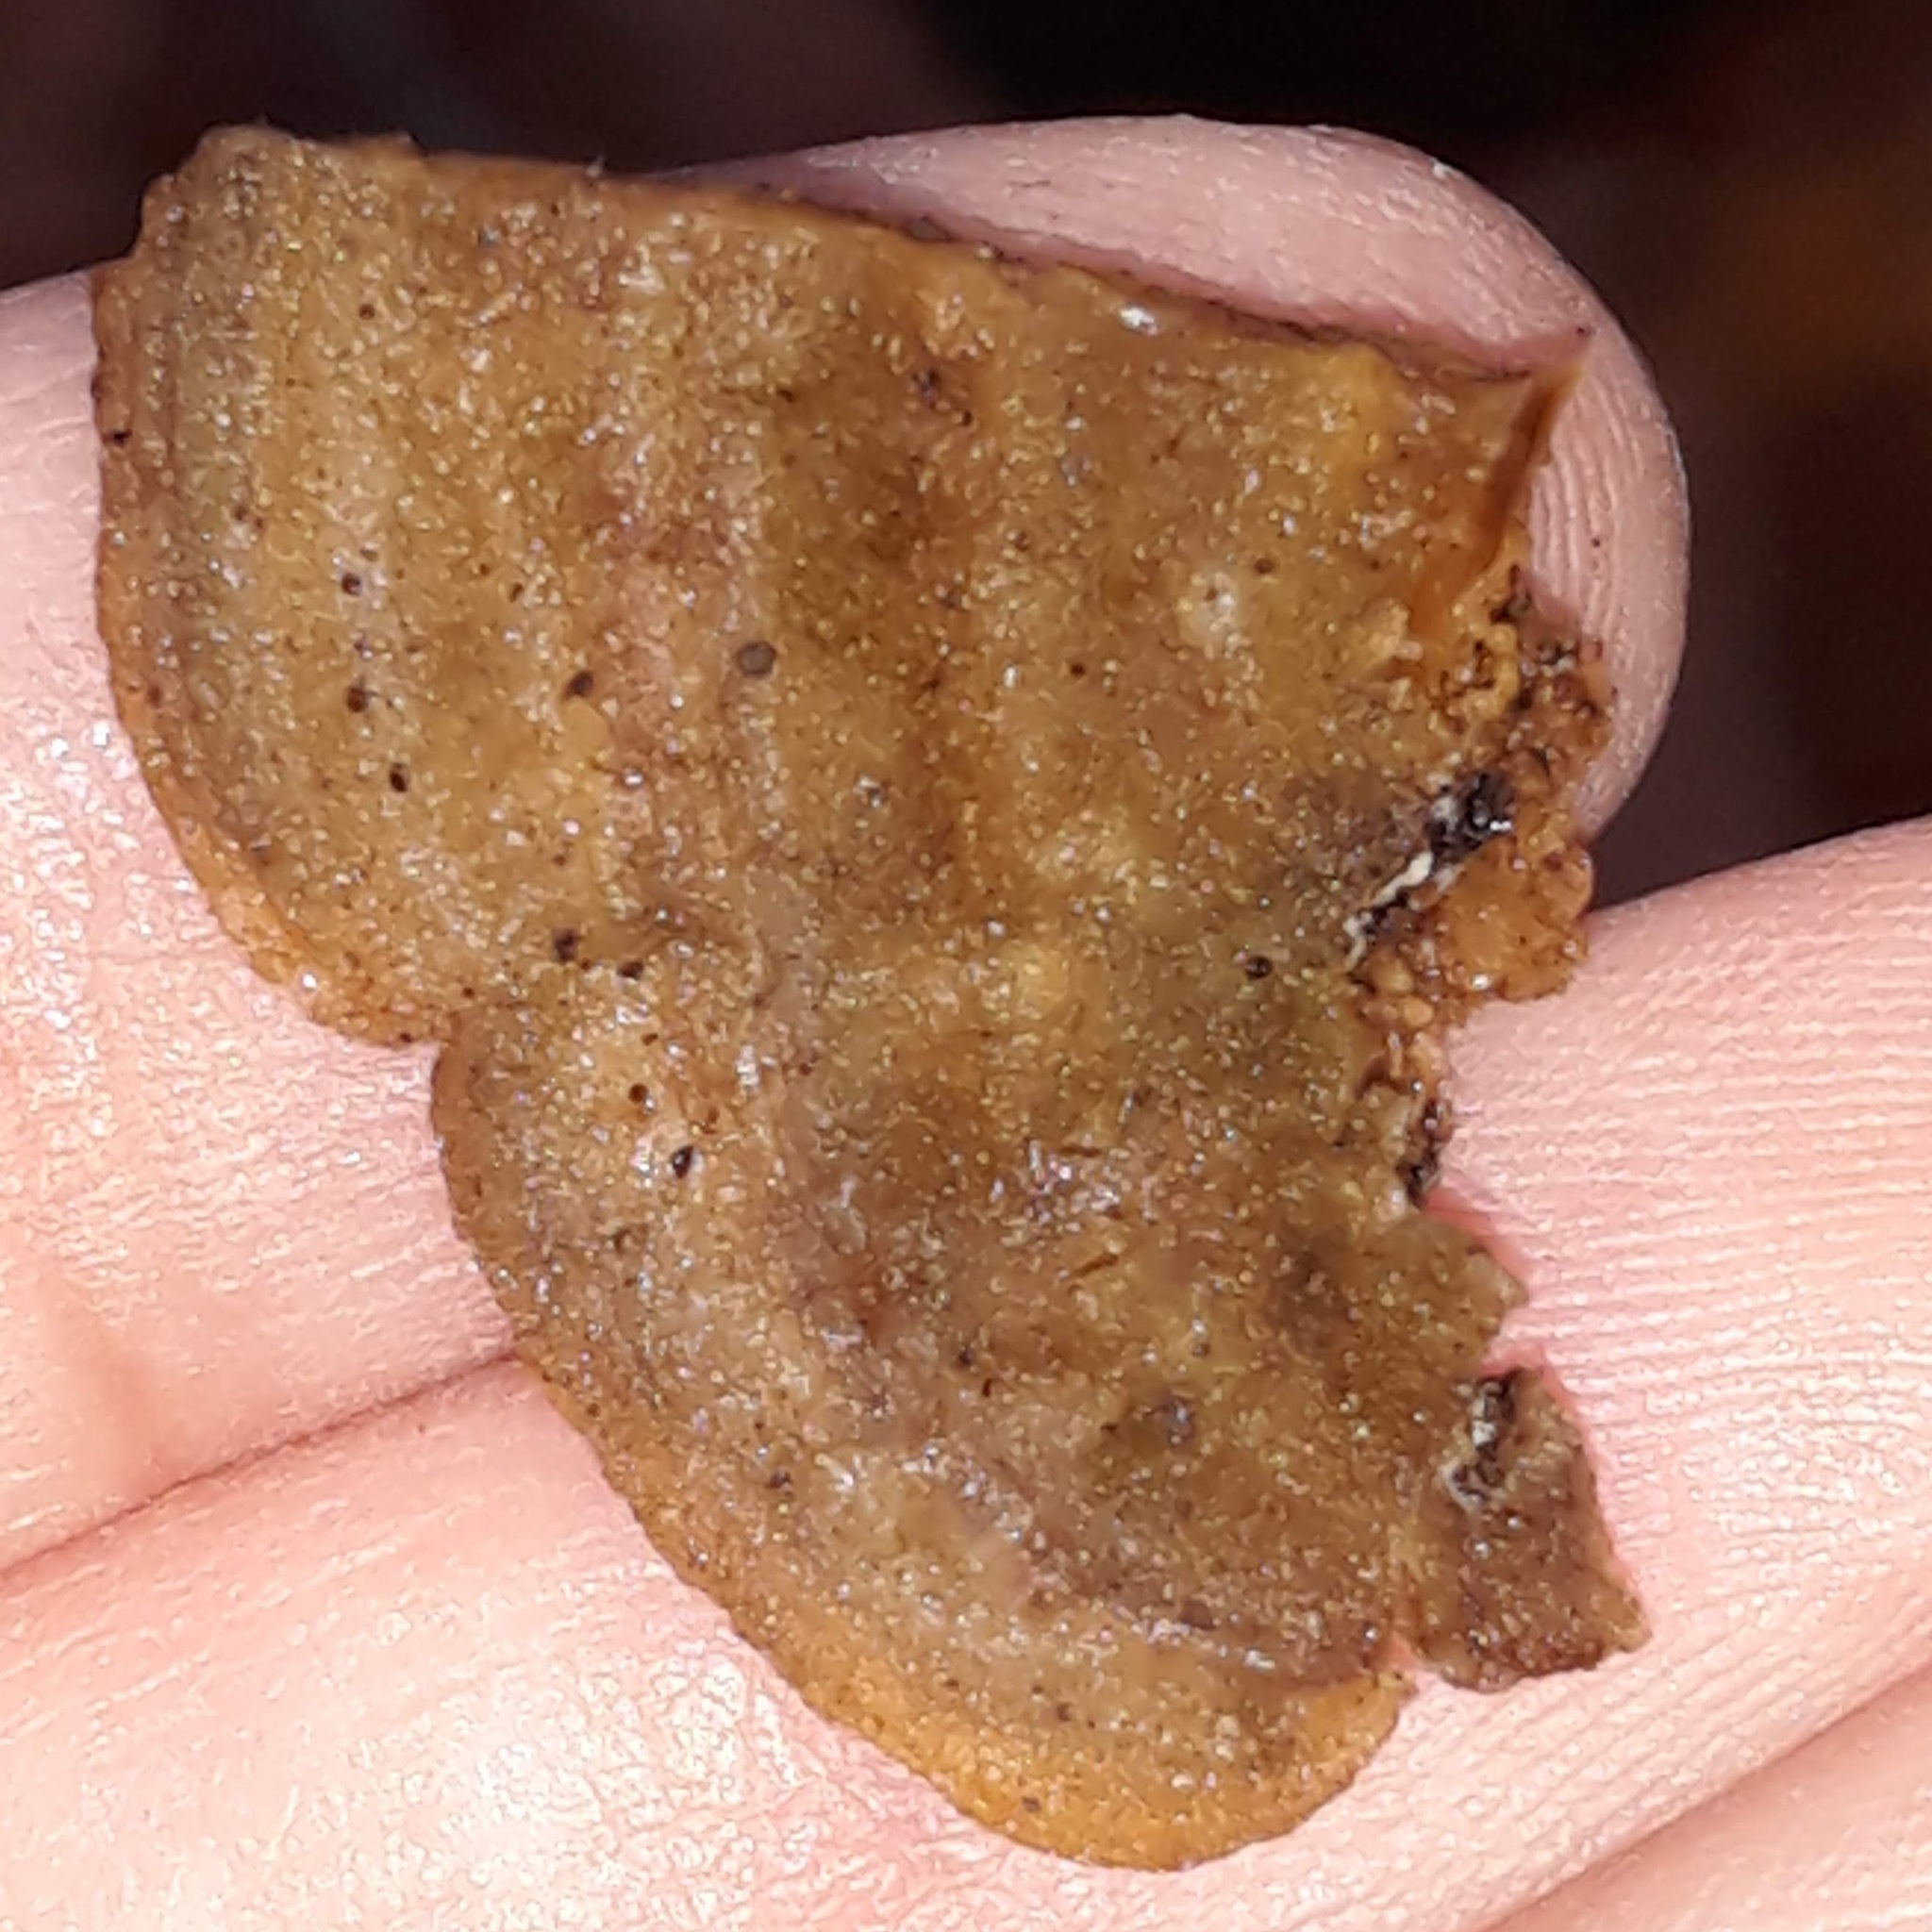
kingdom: Fungi
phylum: Basidiomycota
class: Agaricomycetes
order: Polyporales
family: Cerrenaceae
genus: Cerrena
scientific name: Cerrena unicolor
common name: Mossy maze polypore
